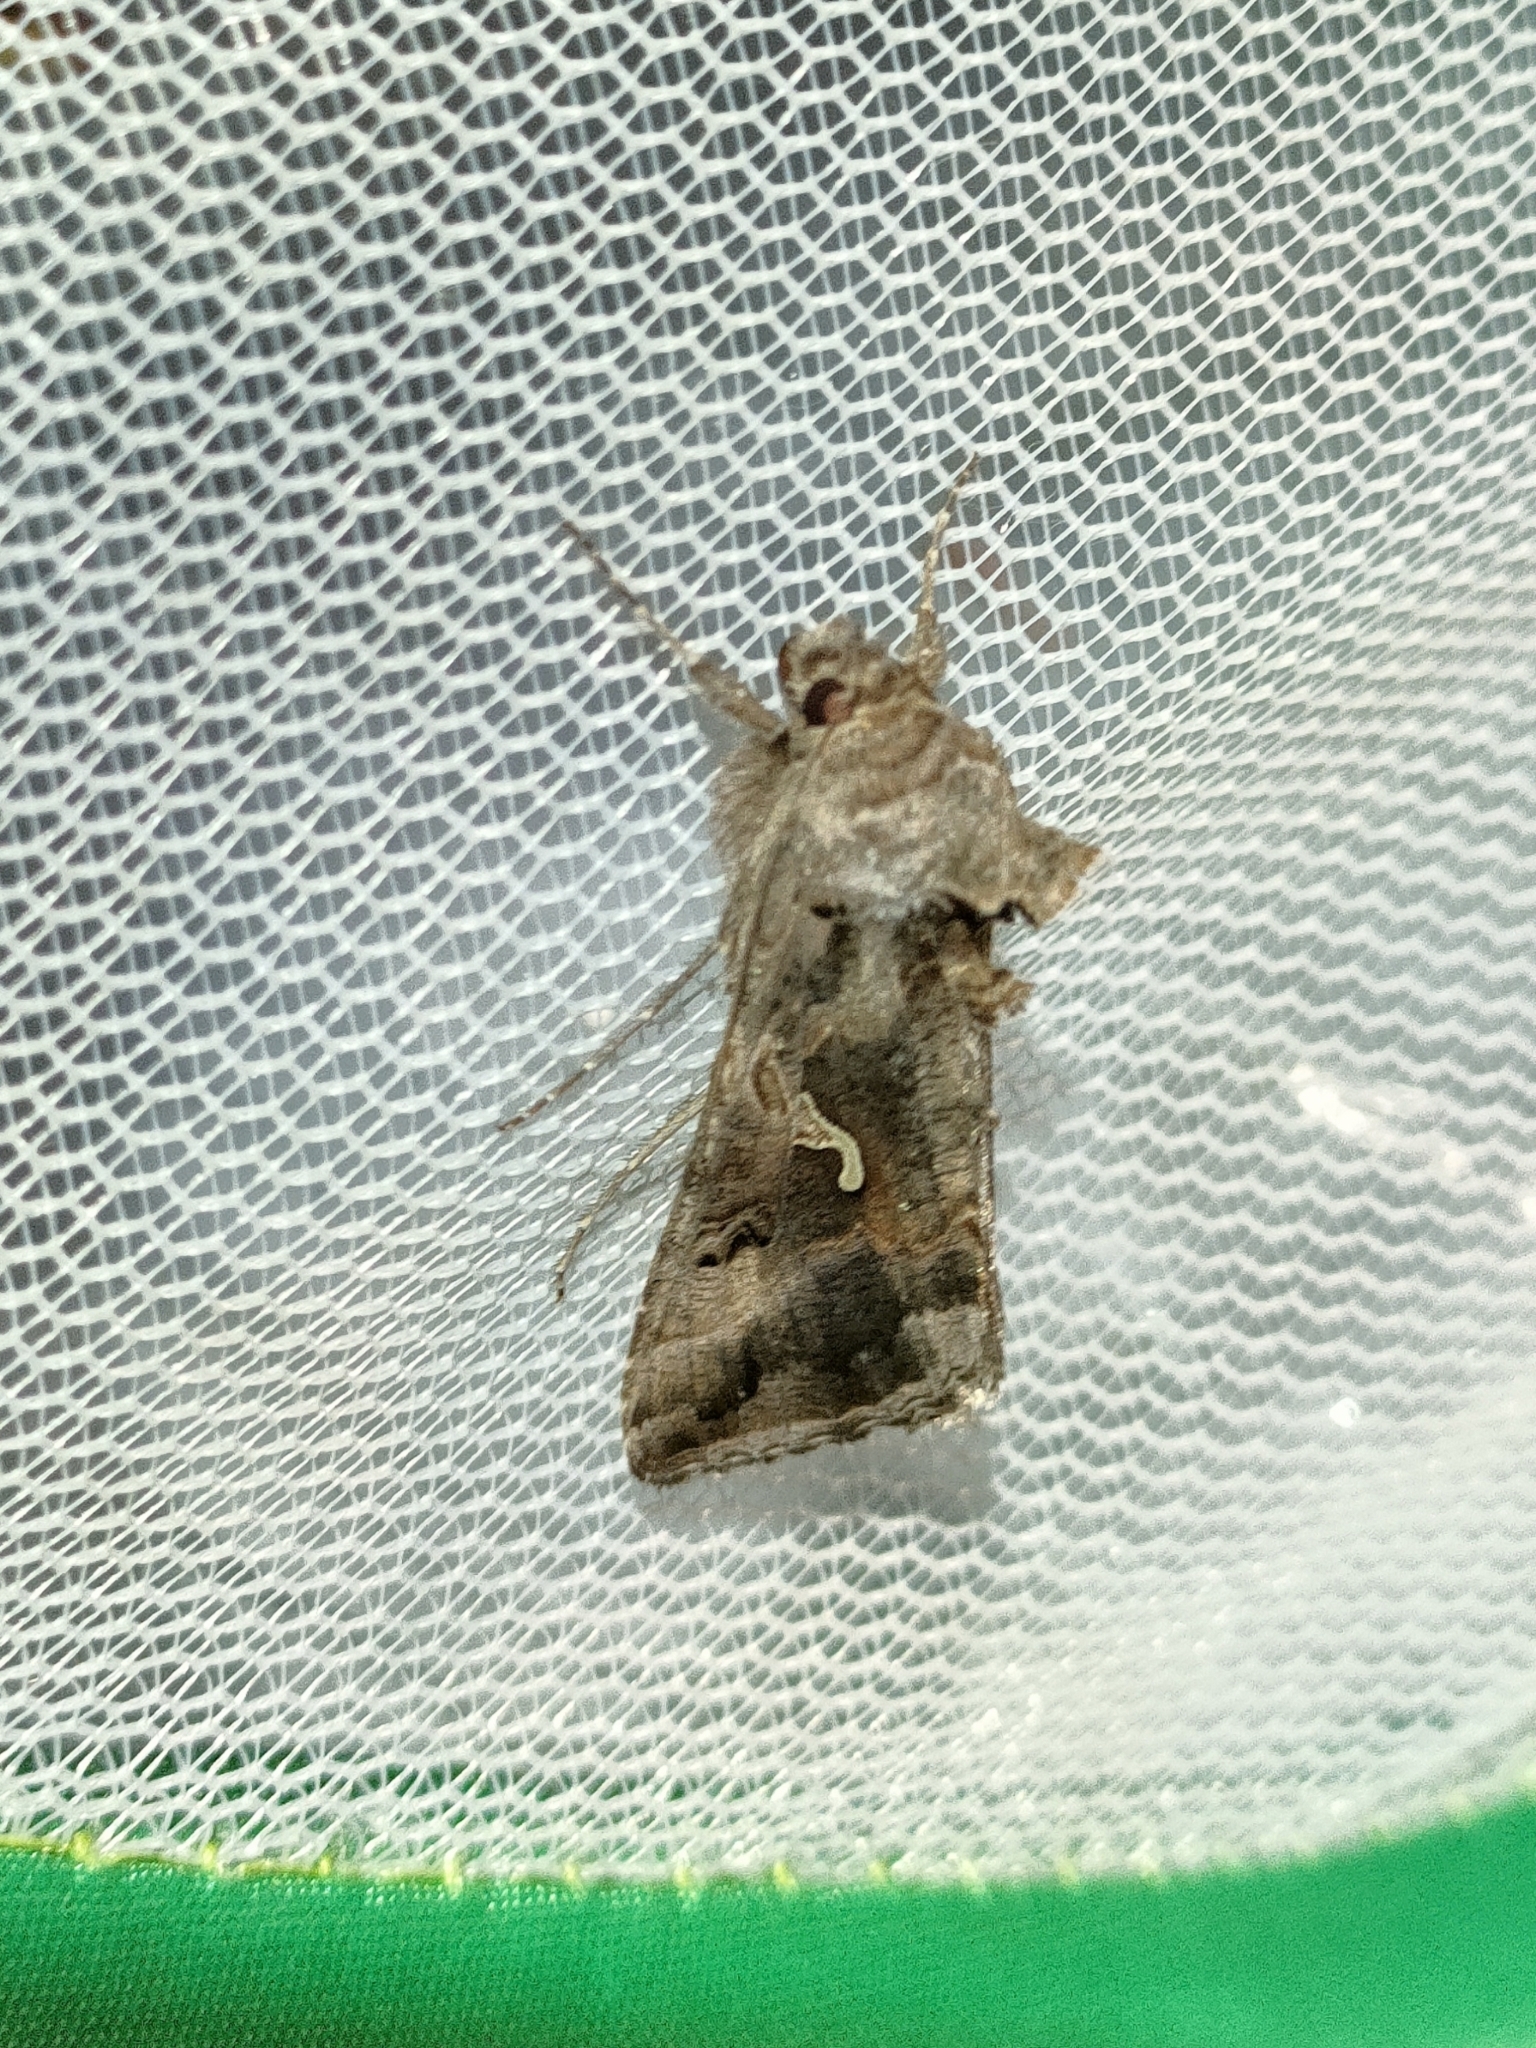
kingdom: Animalia
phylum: Arthropoda
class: Insecta
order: Lepidoptera
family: Noctuidae
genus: Autographa
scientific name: Autographa gamma
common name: Silver y
